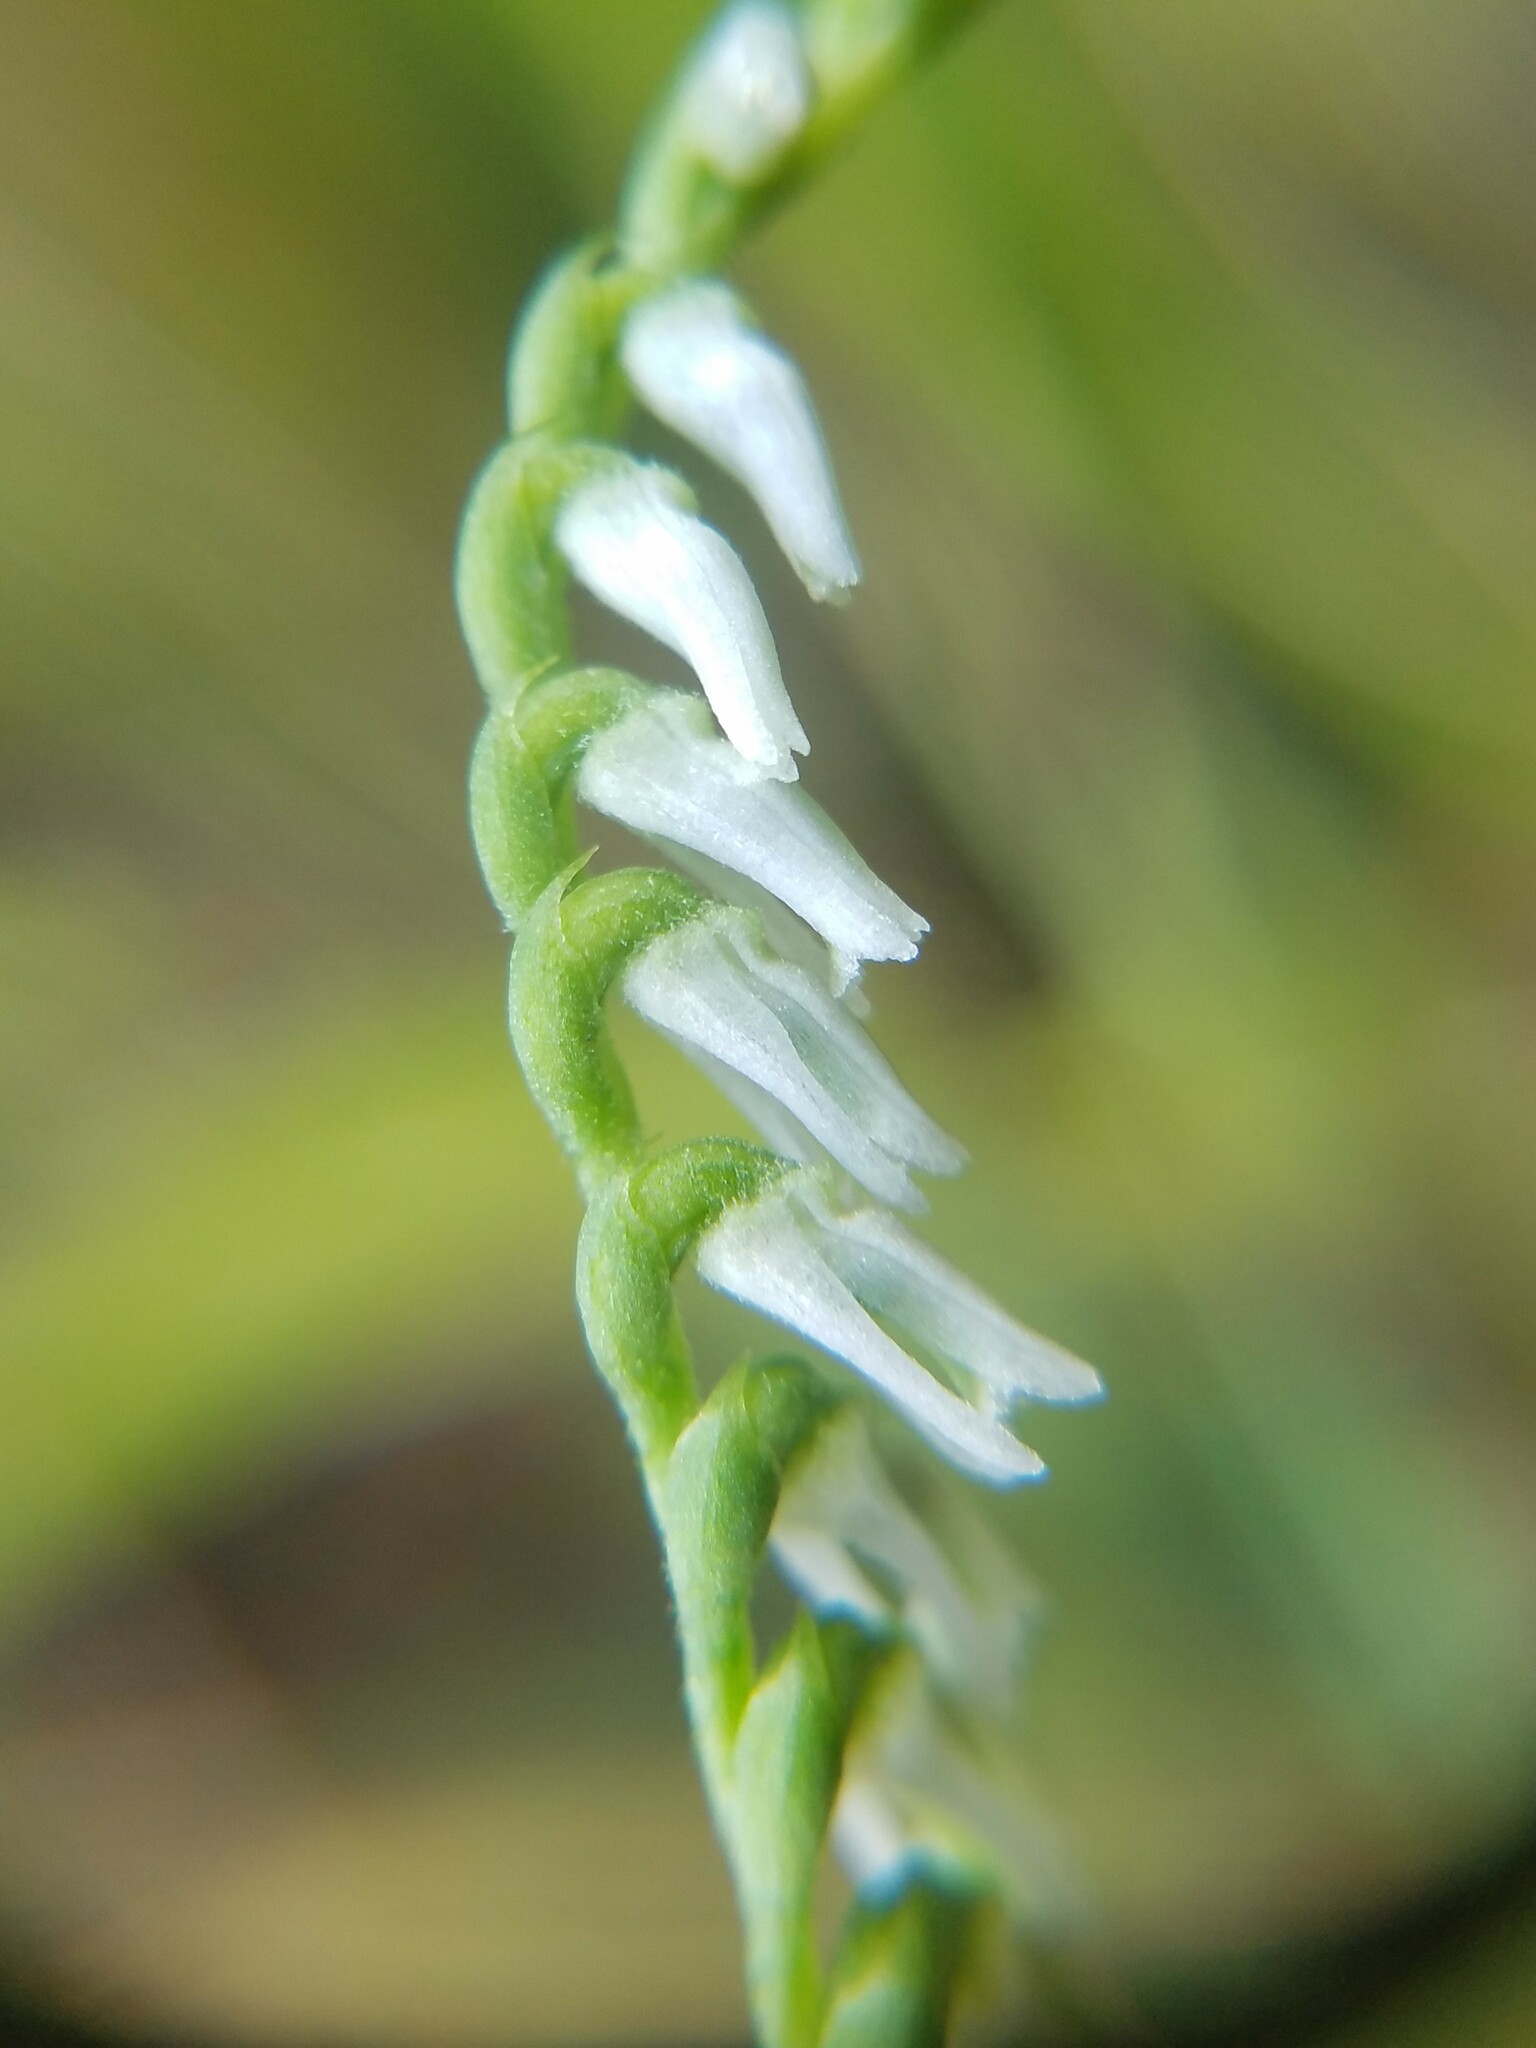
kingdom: Plantae
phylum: Tracheophyta
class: Liliopsida
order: Asparagales
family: Orchidaceae
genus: Spiranthes
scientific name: Spiranthes lacera
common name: Northern slender ladies'-tresses
